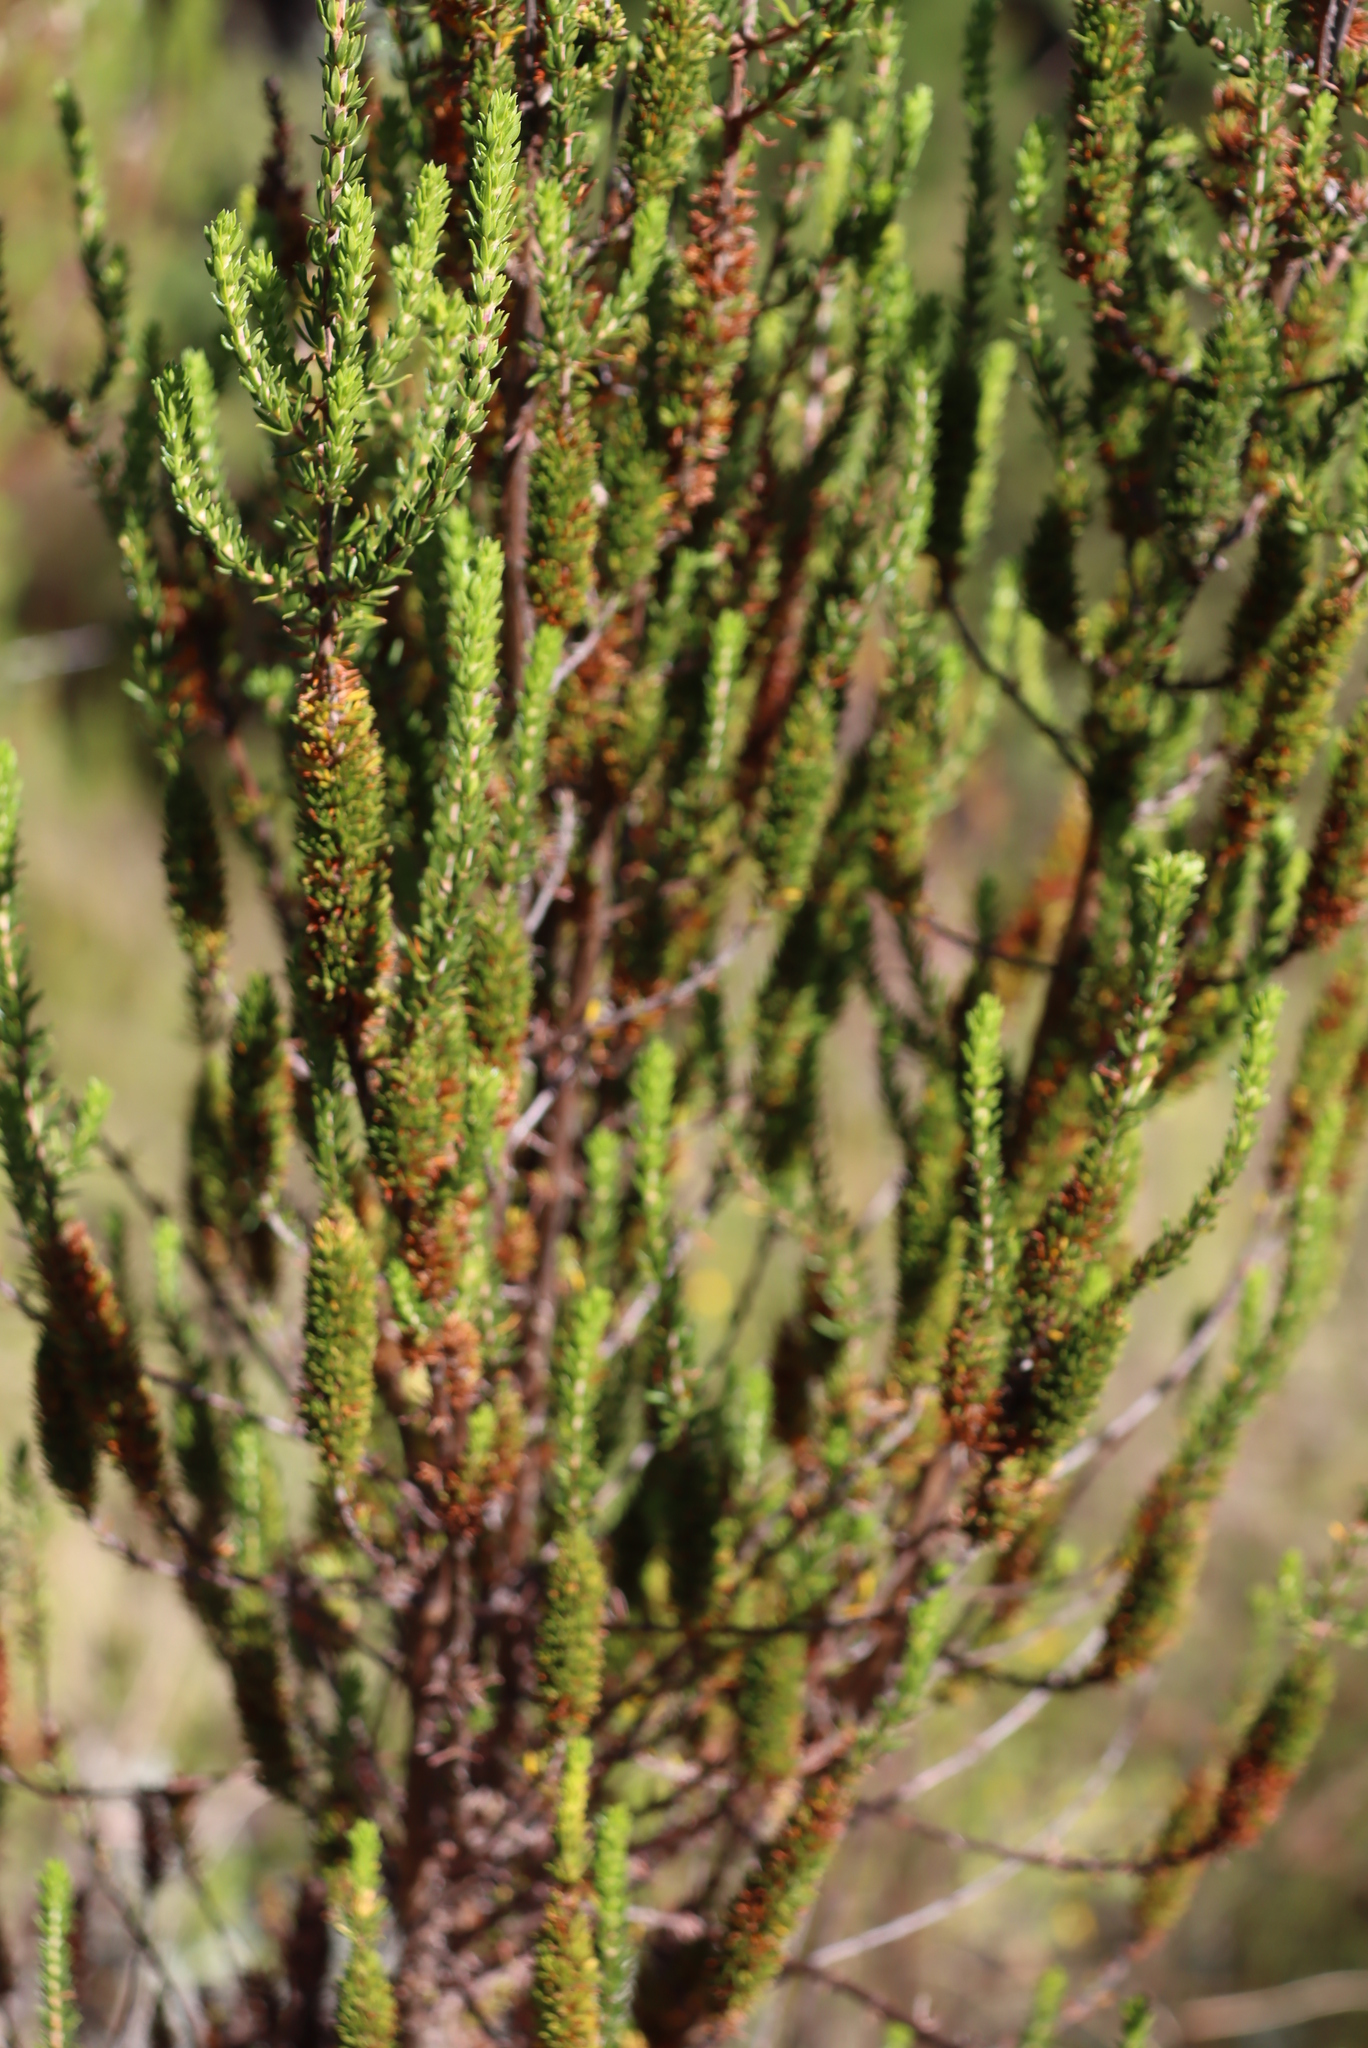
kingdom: Plantae
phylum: Tracheophyta
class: Magnoliopsida
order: Gentianales
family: Rubiaceae
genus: Anthospermum
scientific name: Anthospermum aethiopicum
